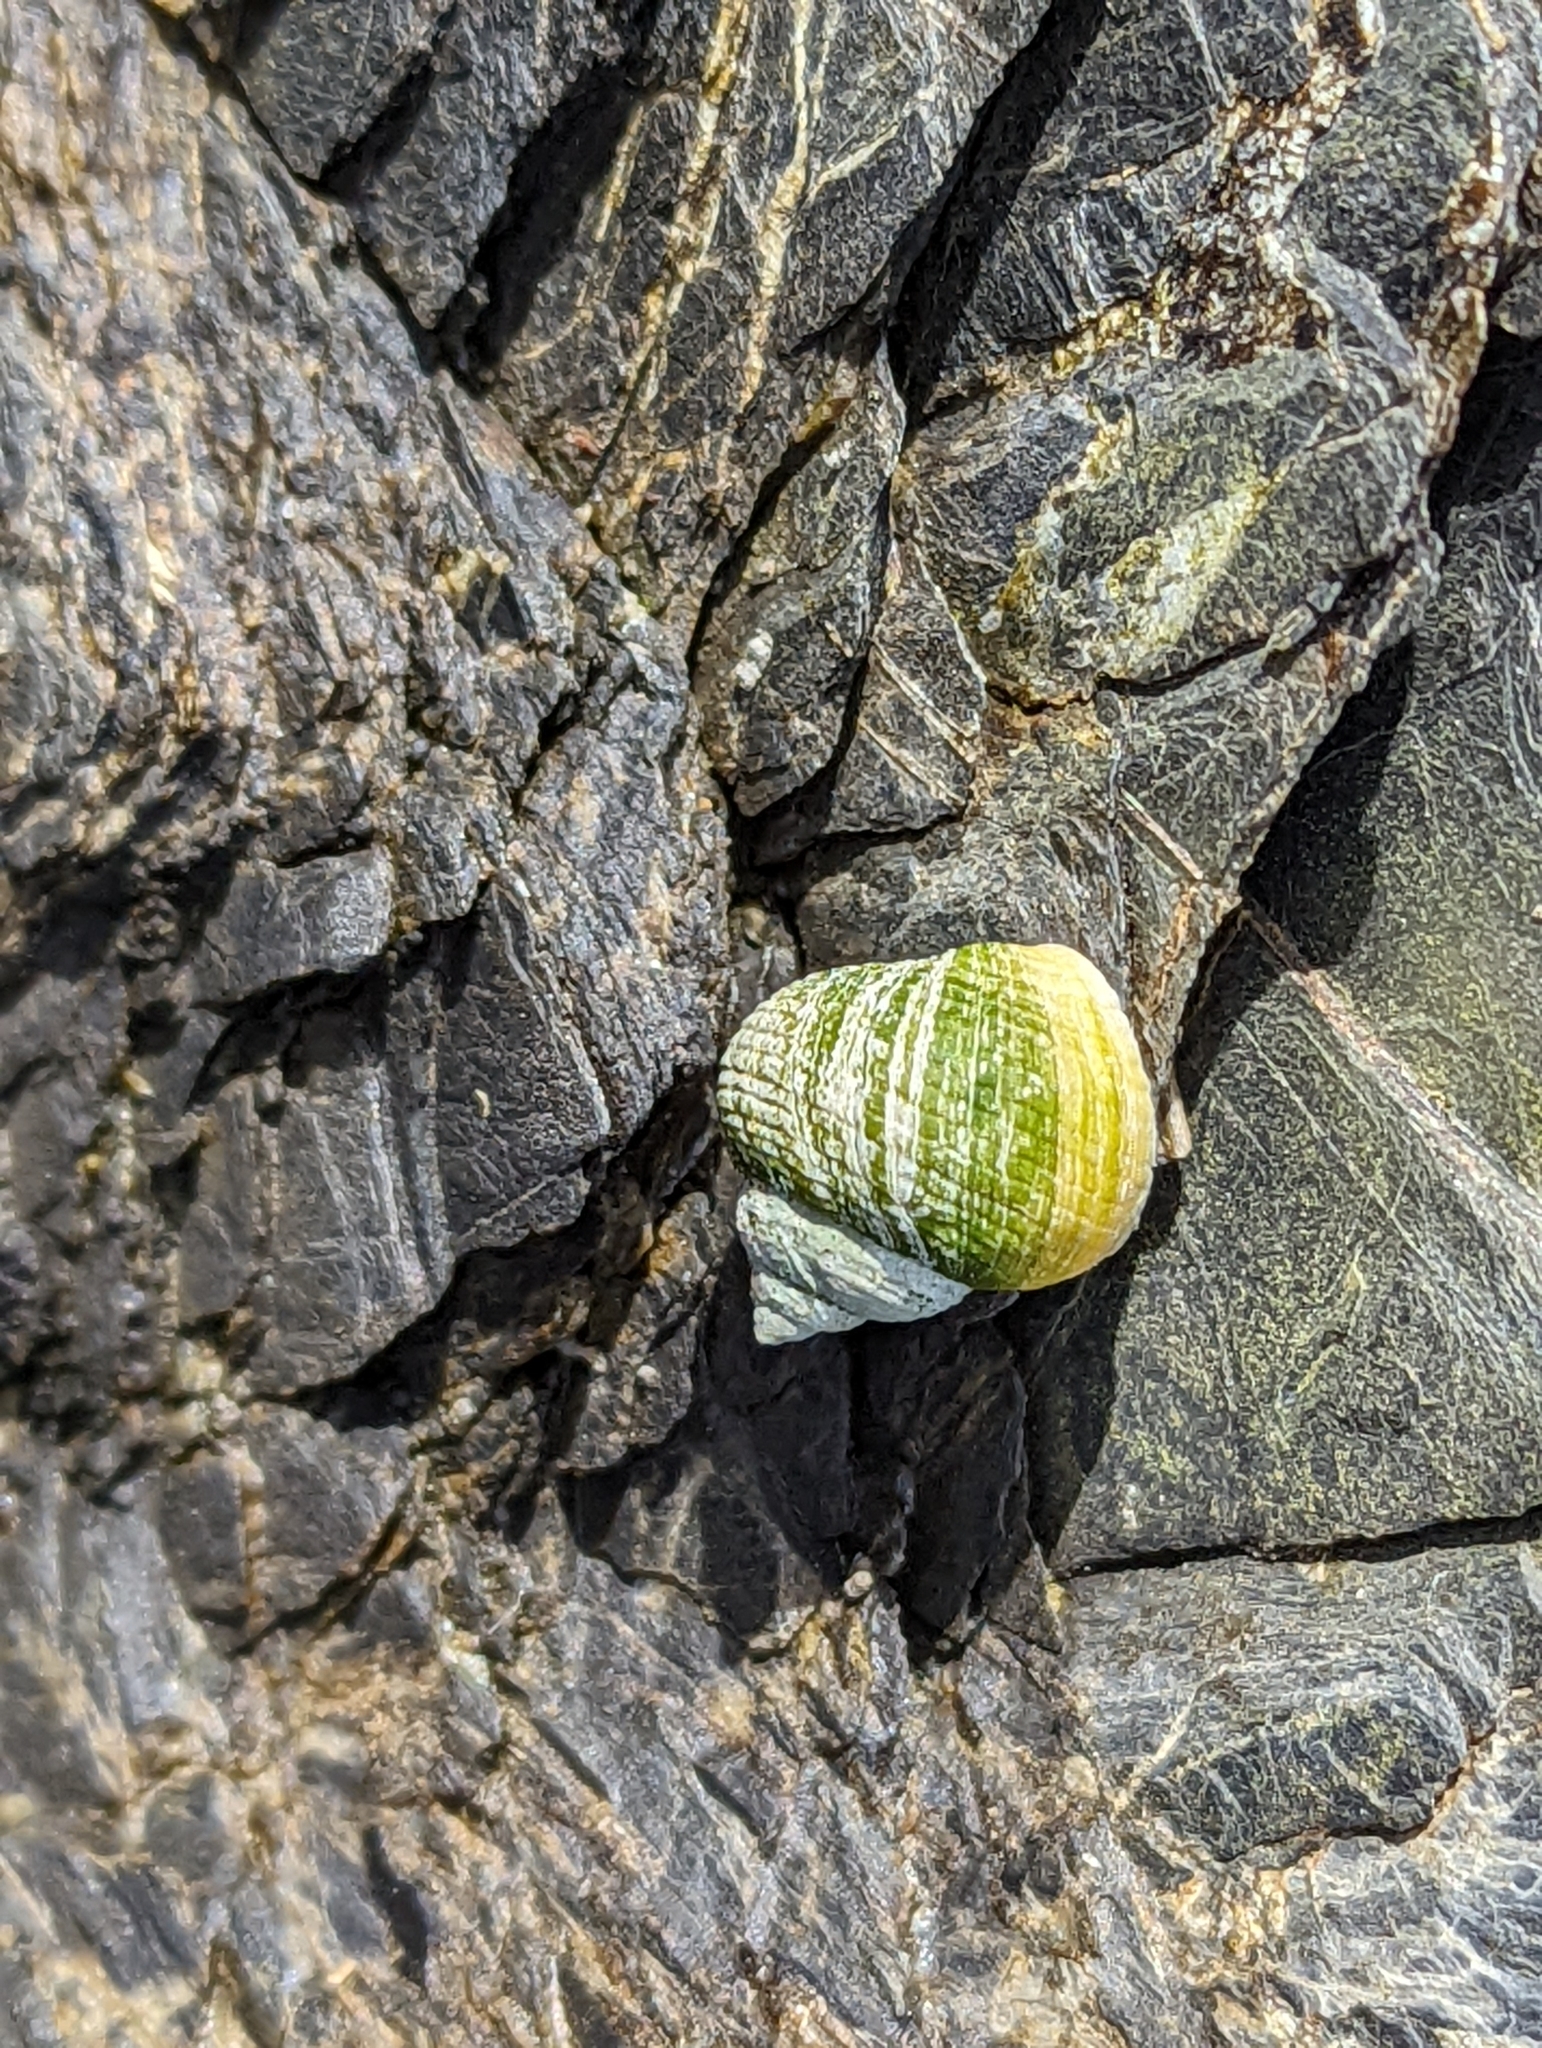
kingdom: Animalia
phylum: Mollusca
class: Gastropoda
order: Littorinimorpha
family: Littorinidae
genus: Littorina
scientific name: Littorina
